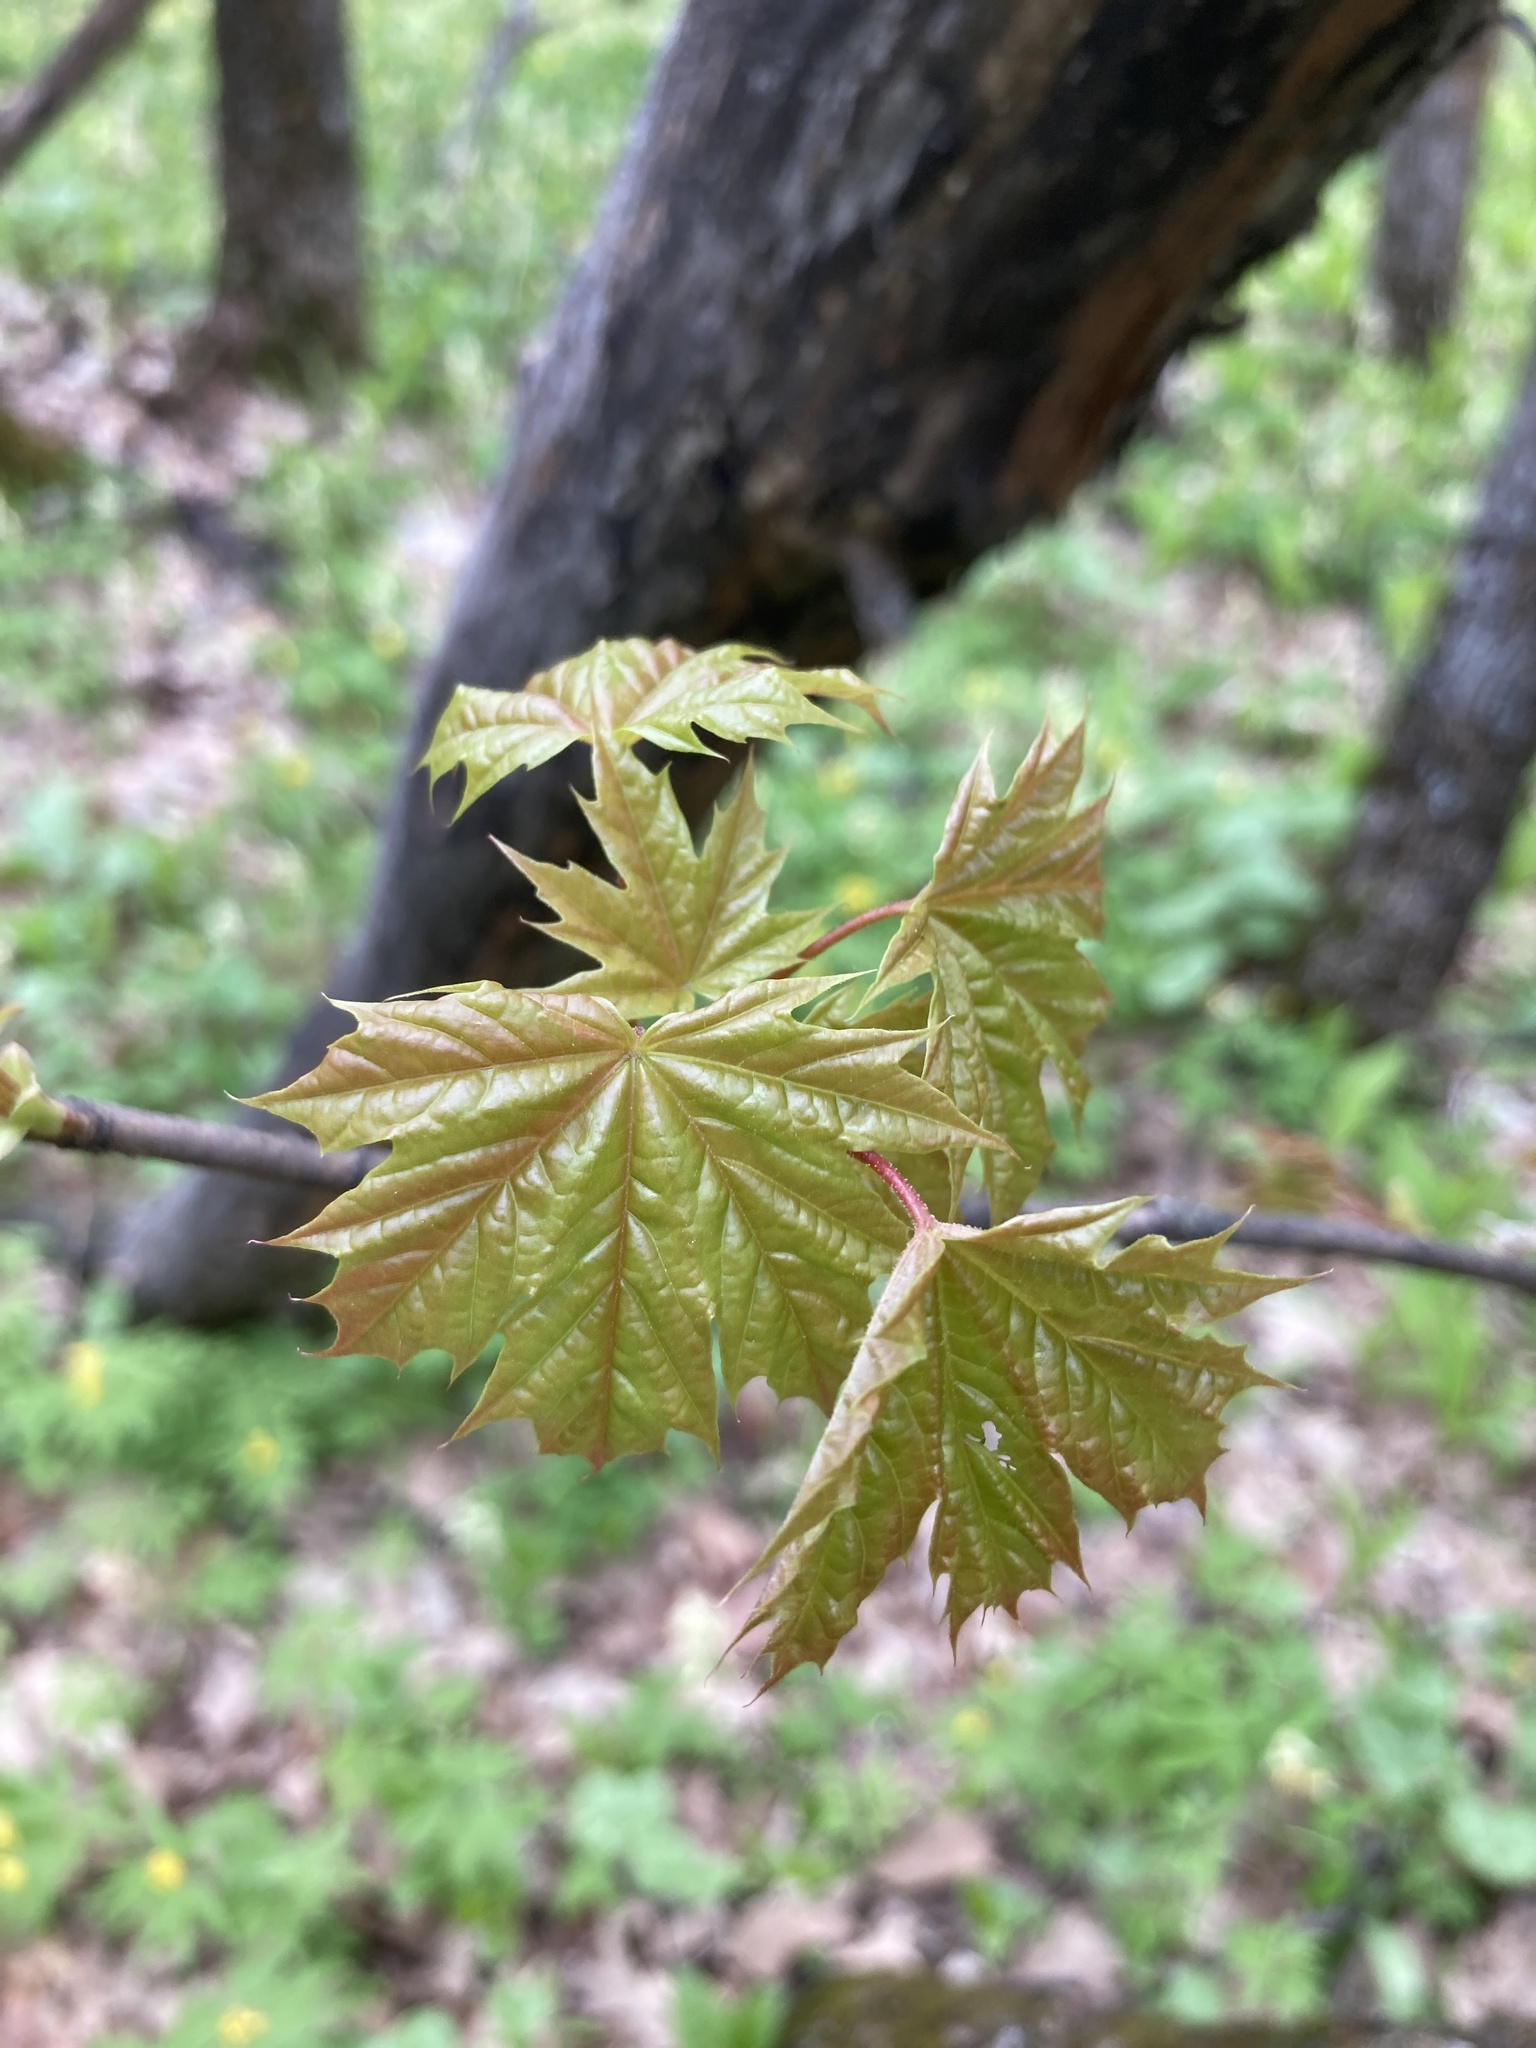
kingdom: Plantae
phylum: Tracheophyta
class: Magnoliopsida
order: Sapindales
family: Sapindaceae
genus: Acer
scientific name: Acer platanoides
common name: Norway maple
